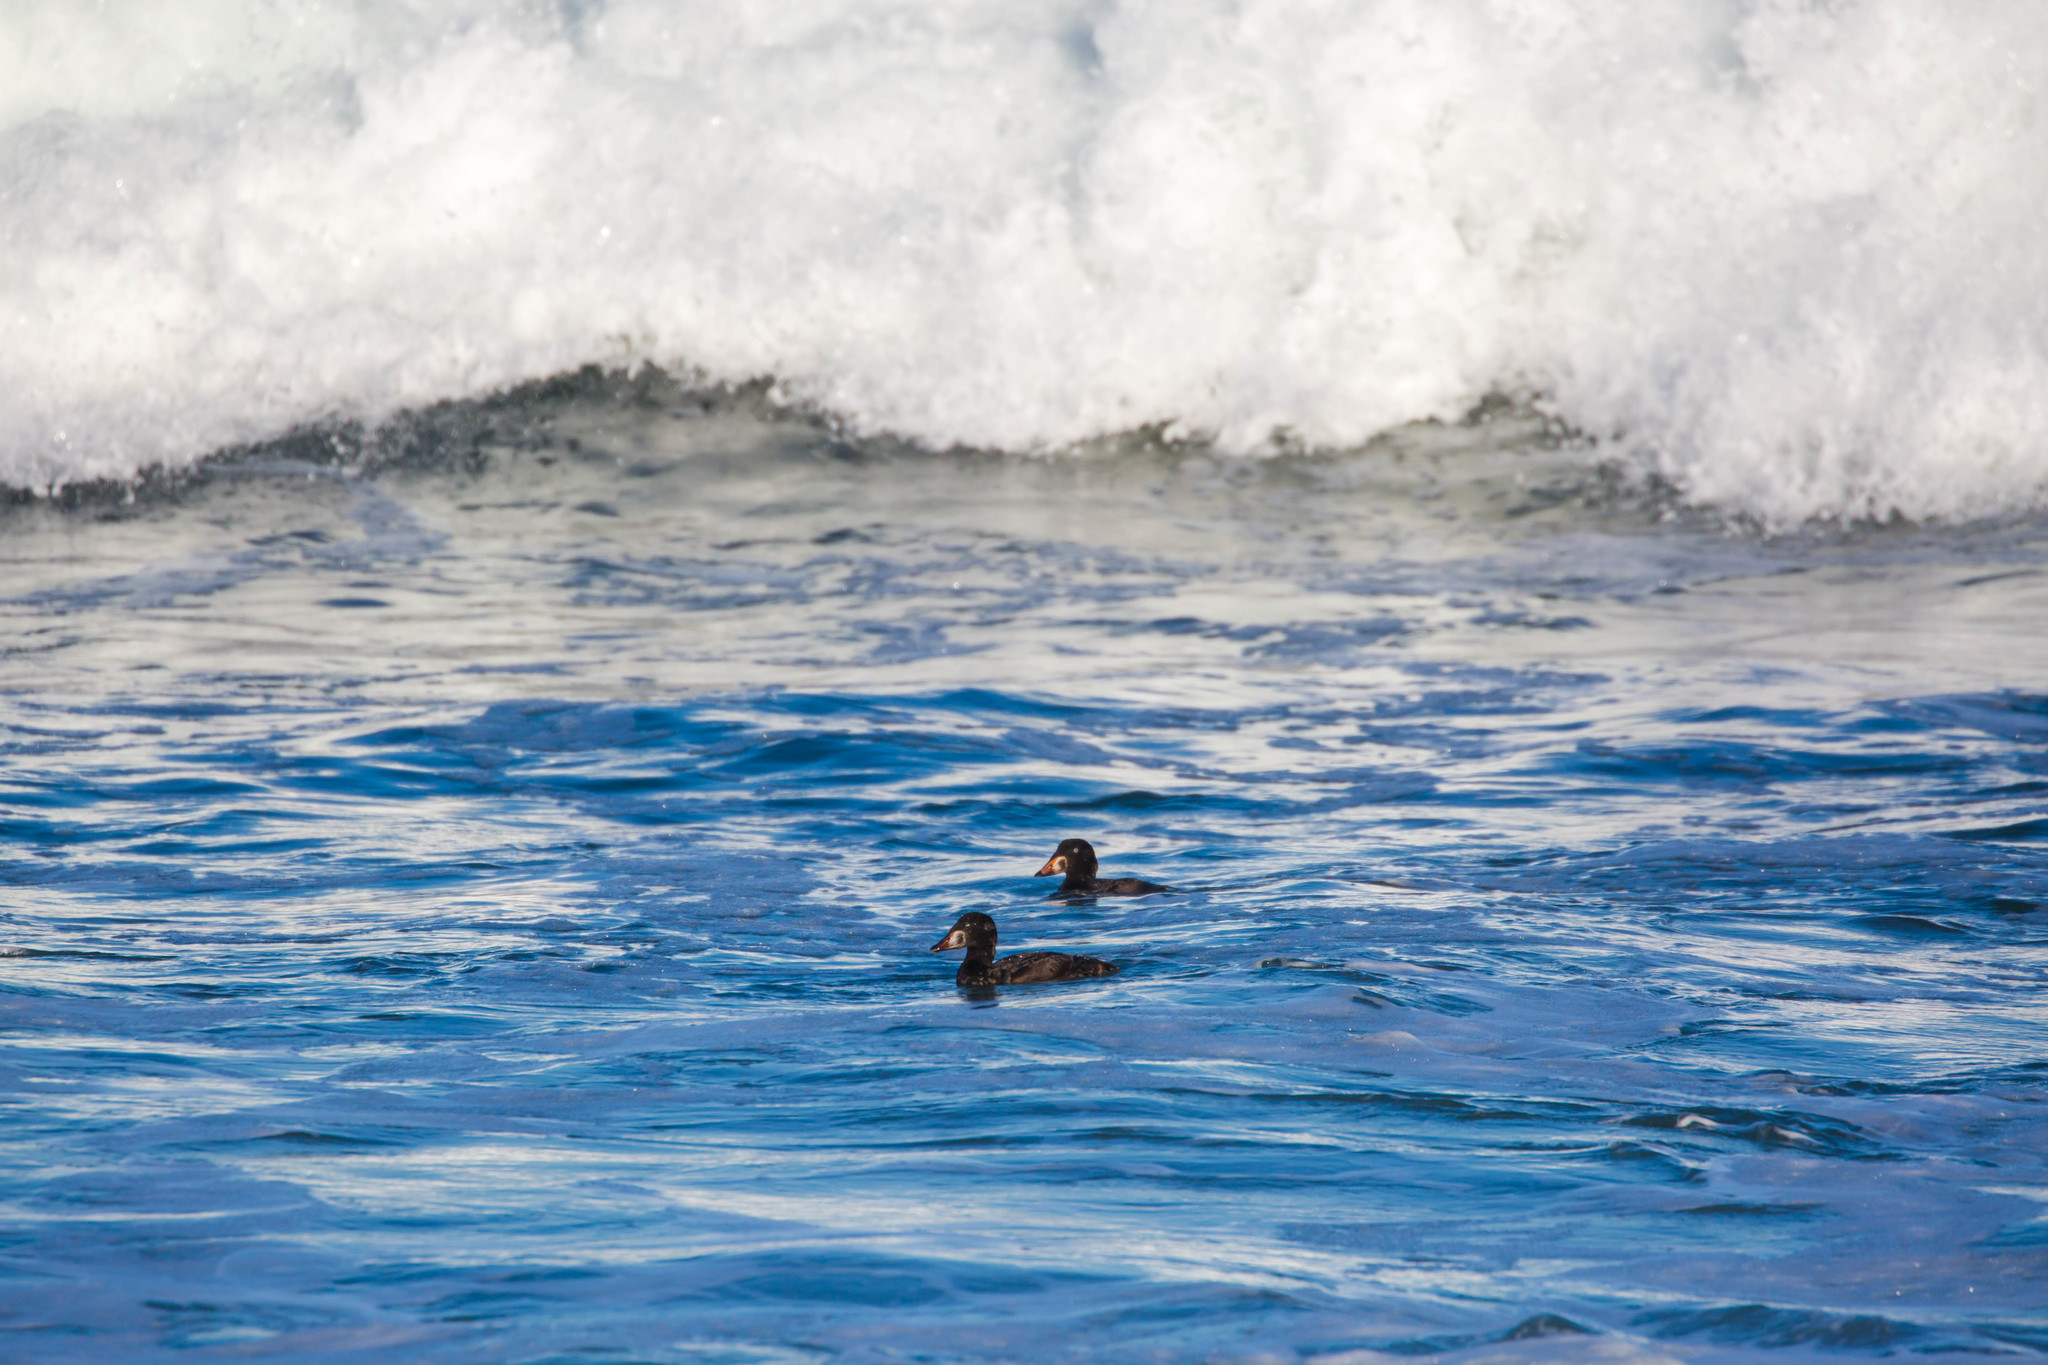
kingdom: Animalia
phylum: Chordata
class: Aves
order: Anseriformes
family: Anatidae
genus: Melanitta
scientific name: Melanitta perspicillata
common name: Surf scoter
